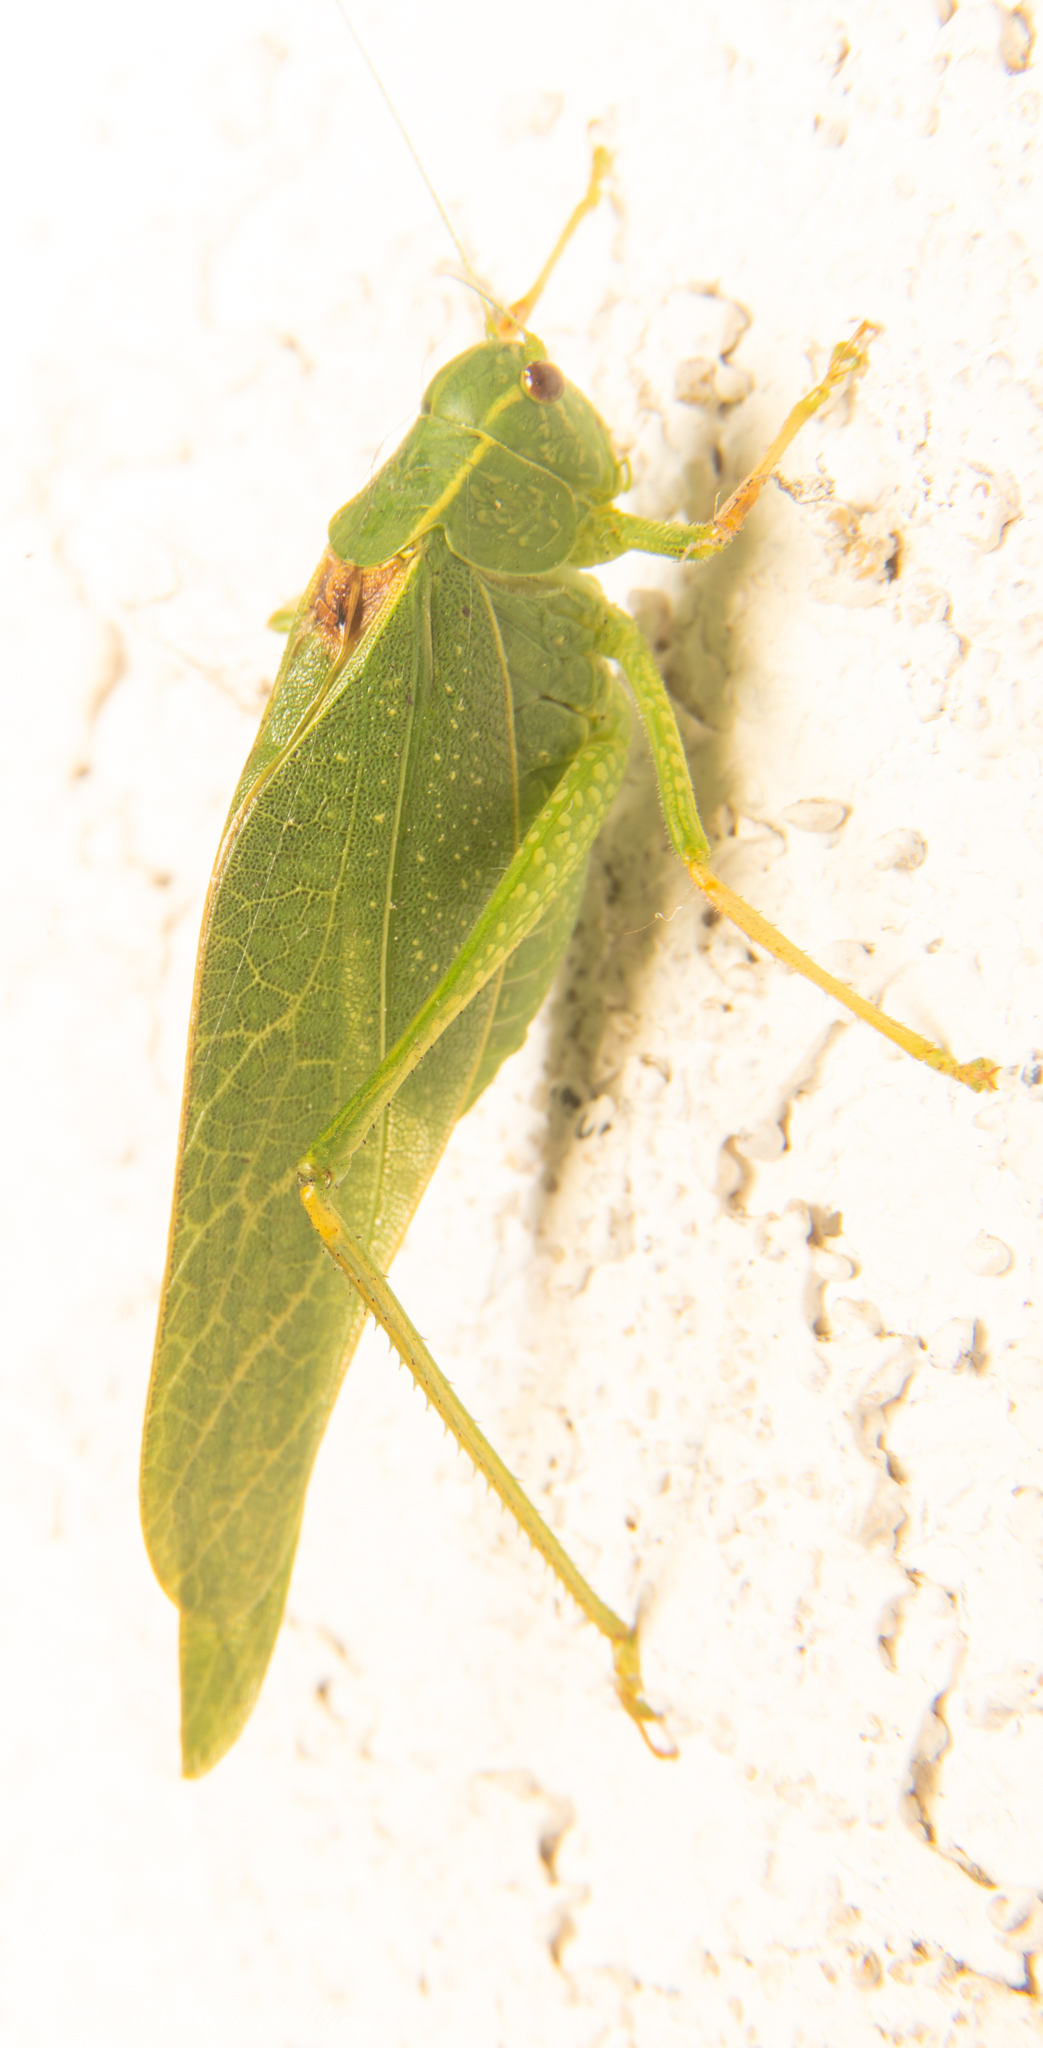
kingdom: Animalia
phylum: Arthropoda
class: Insecta
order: Orthoptera
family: Tettigoniidae
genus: Microcentrum
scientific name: Microcentrum californicum
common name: California angle-wing
